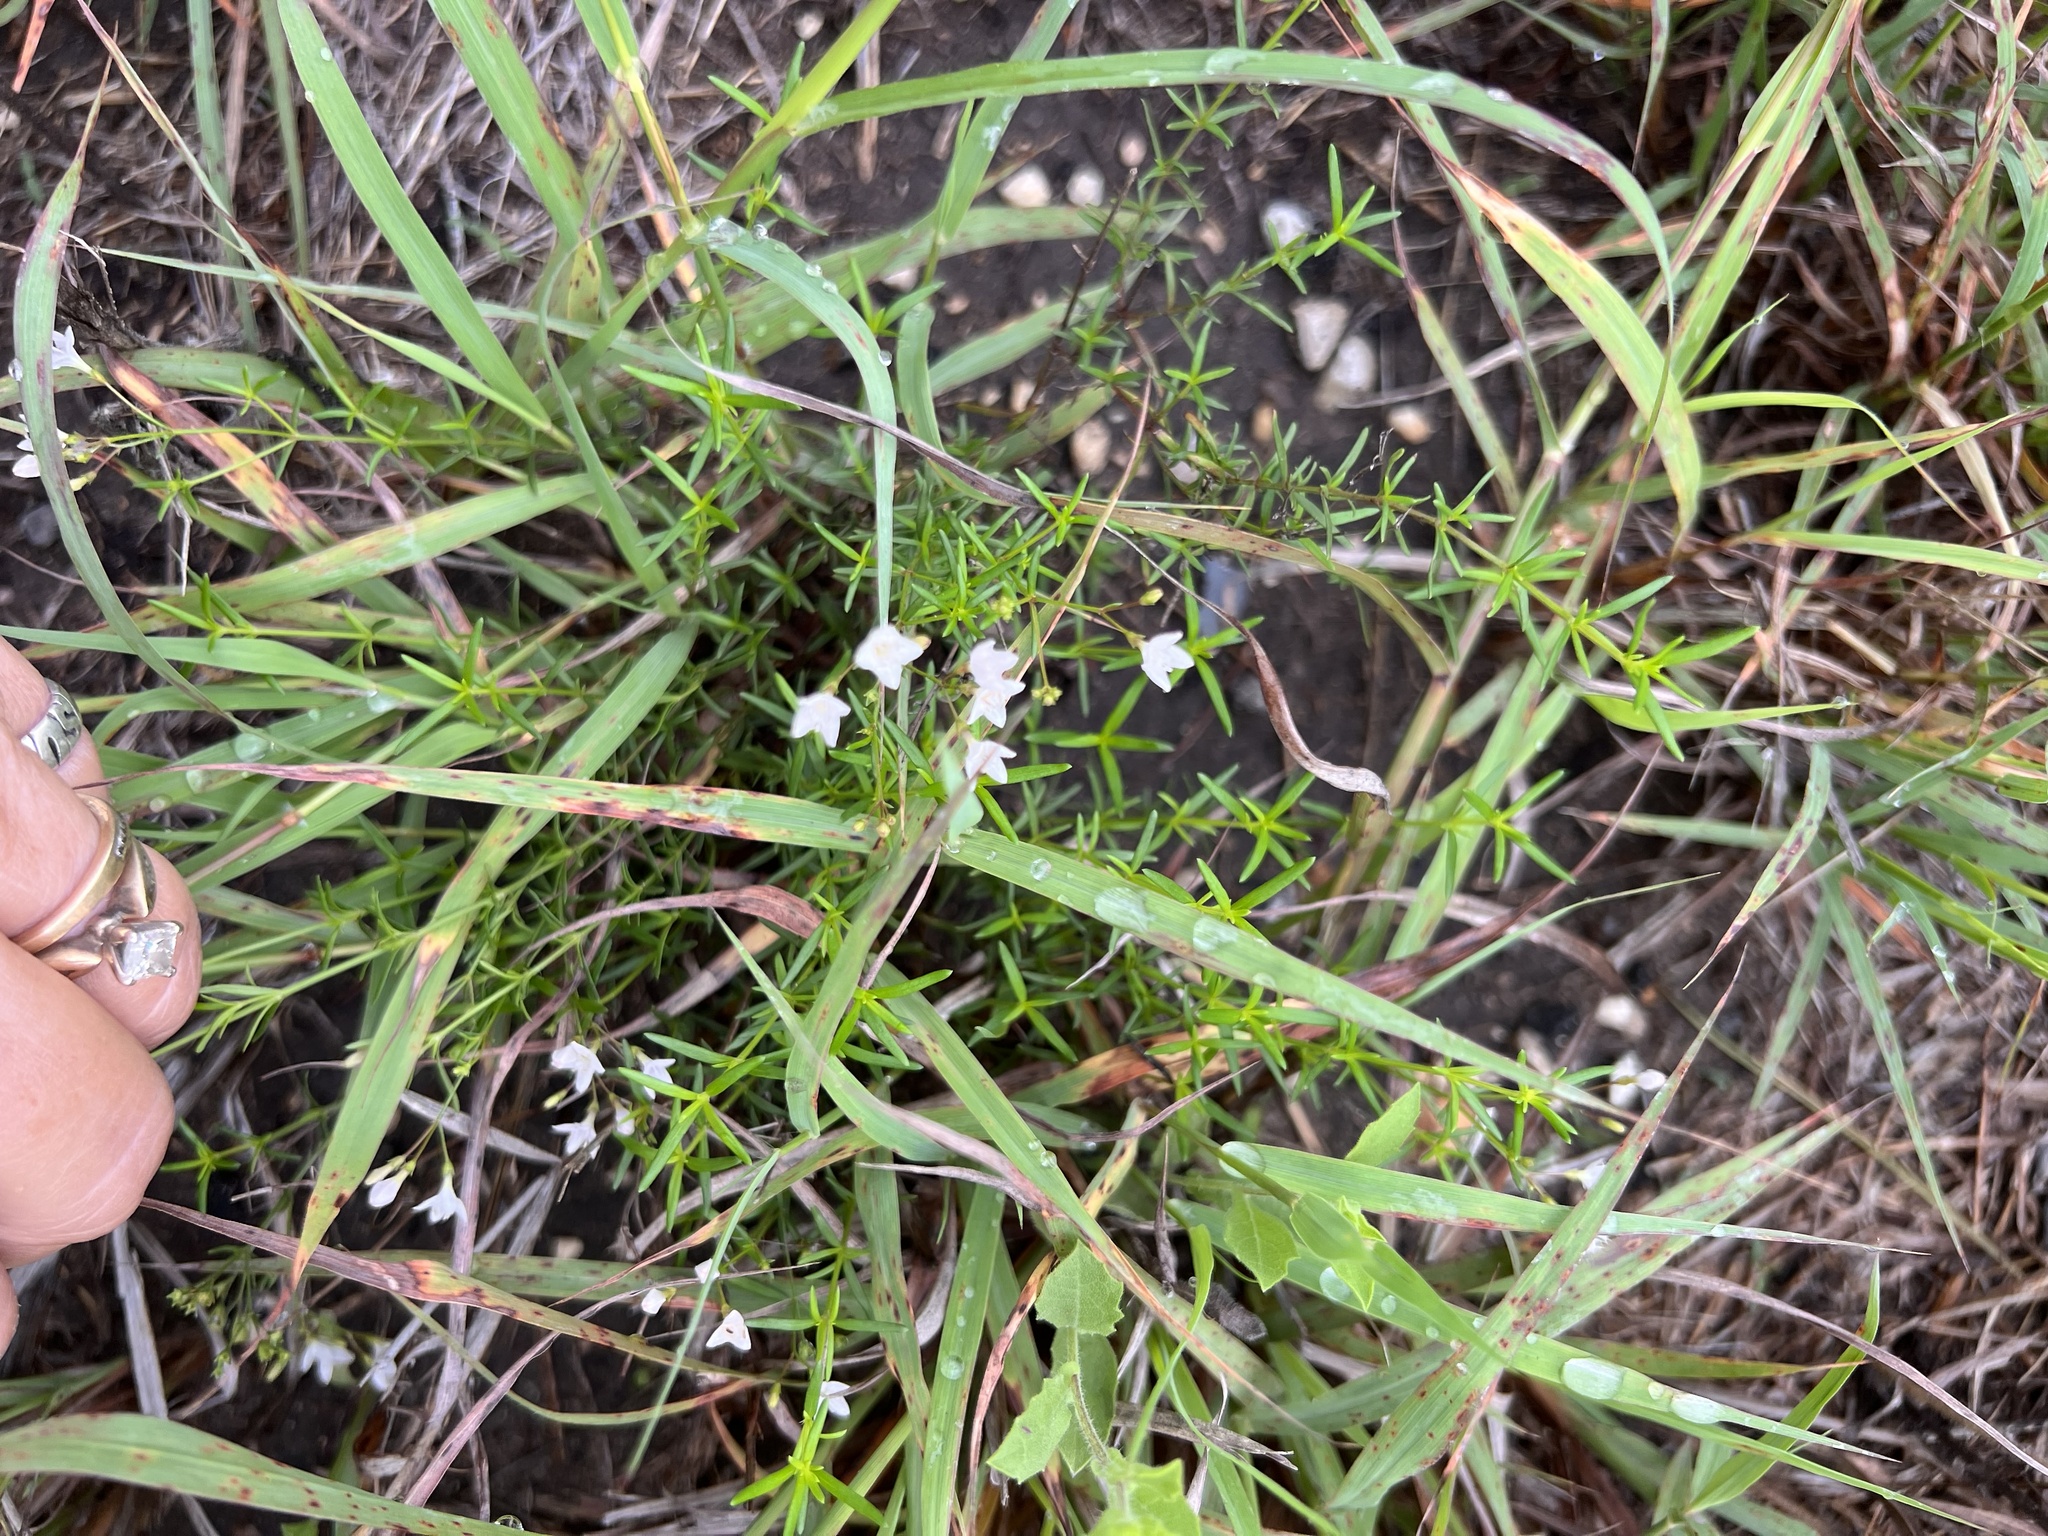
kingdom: Plantae
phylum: Tracheophyta
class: Magnoliopsida
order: Gentianales
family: Rubiaceae
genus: Stenaria
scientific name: Stenaria nigricans
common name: Diamondflowers
